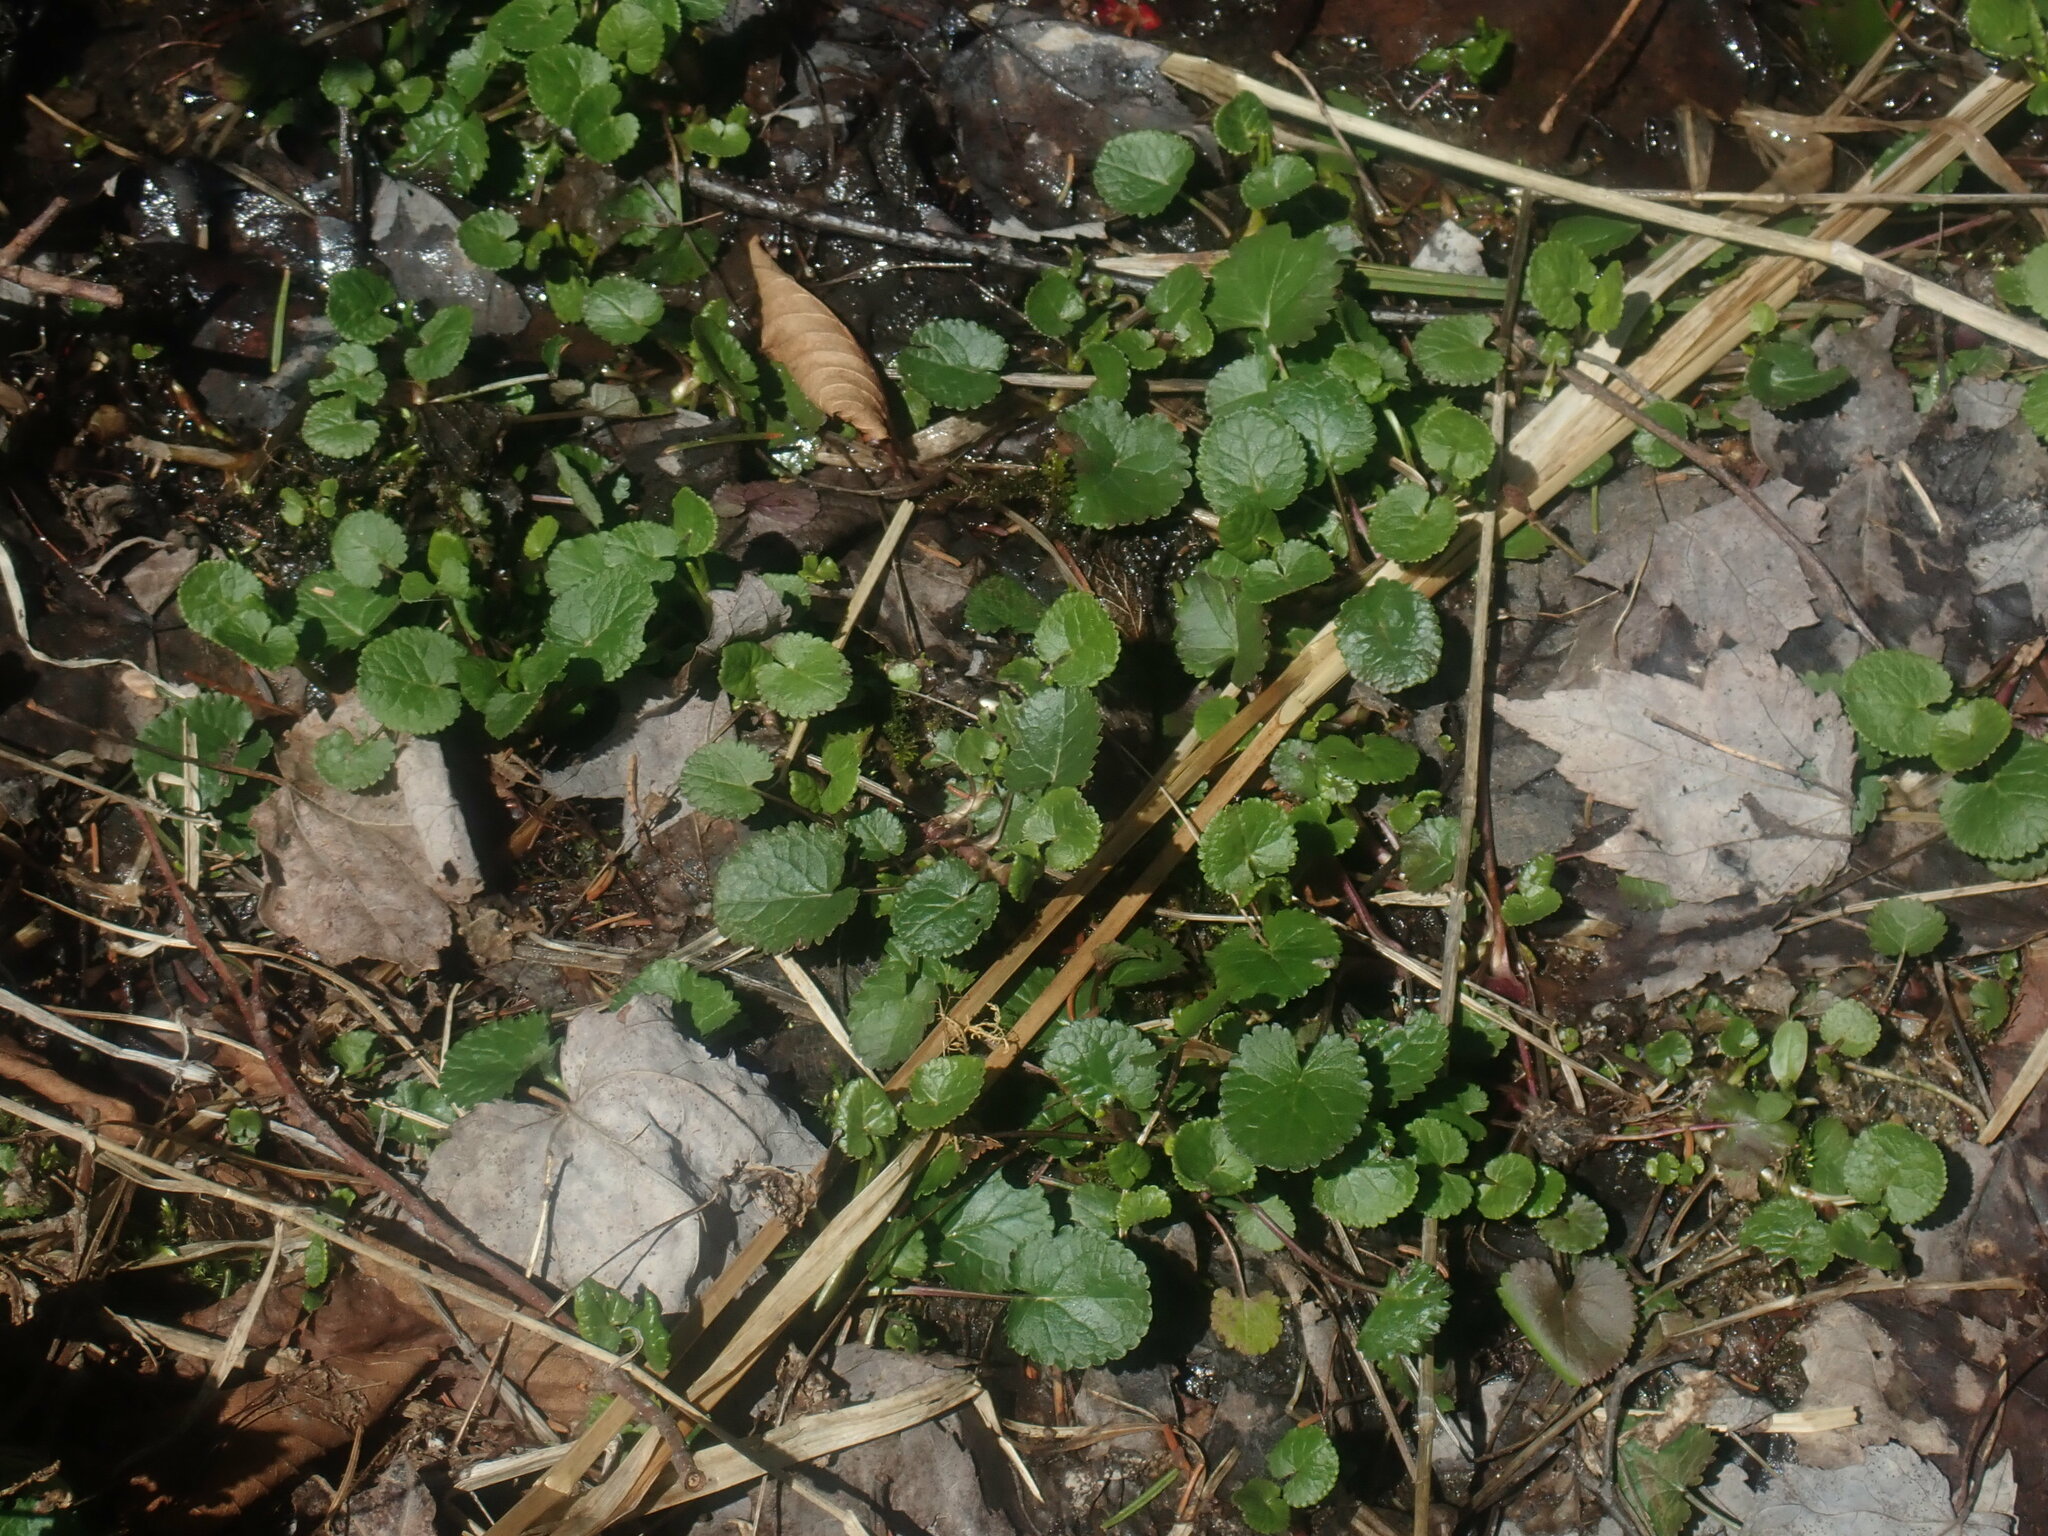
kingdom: Plantae
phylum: Tracheophyta
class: Magnoliopsida
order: Asterales
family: Asteraceae
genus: Packera
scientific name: Packera aurea
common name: Golden groundsel
